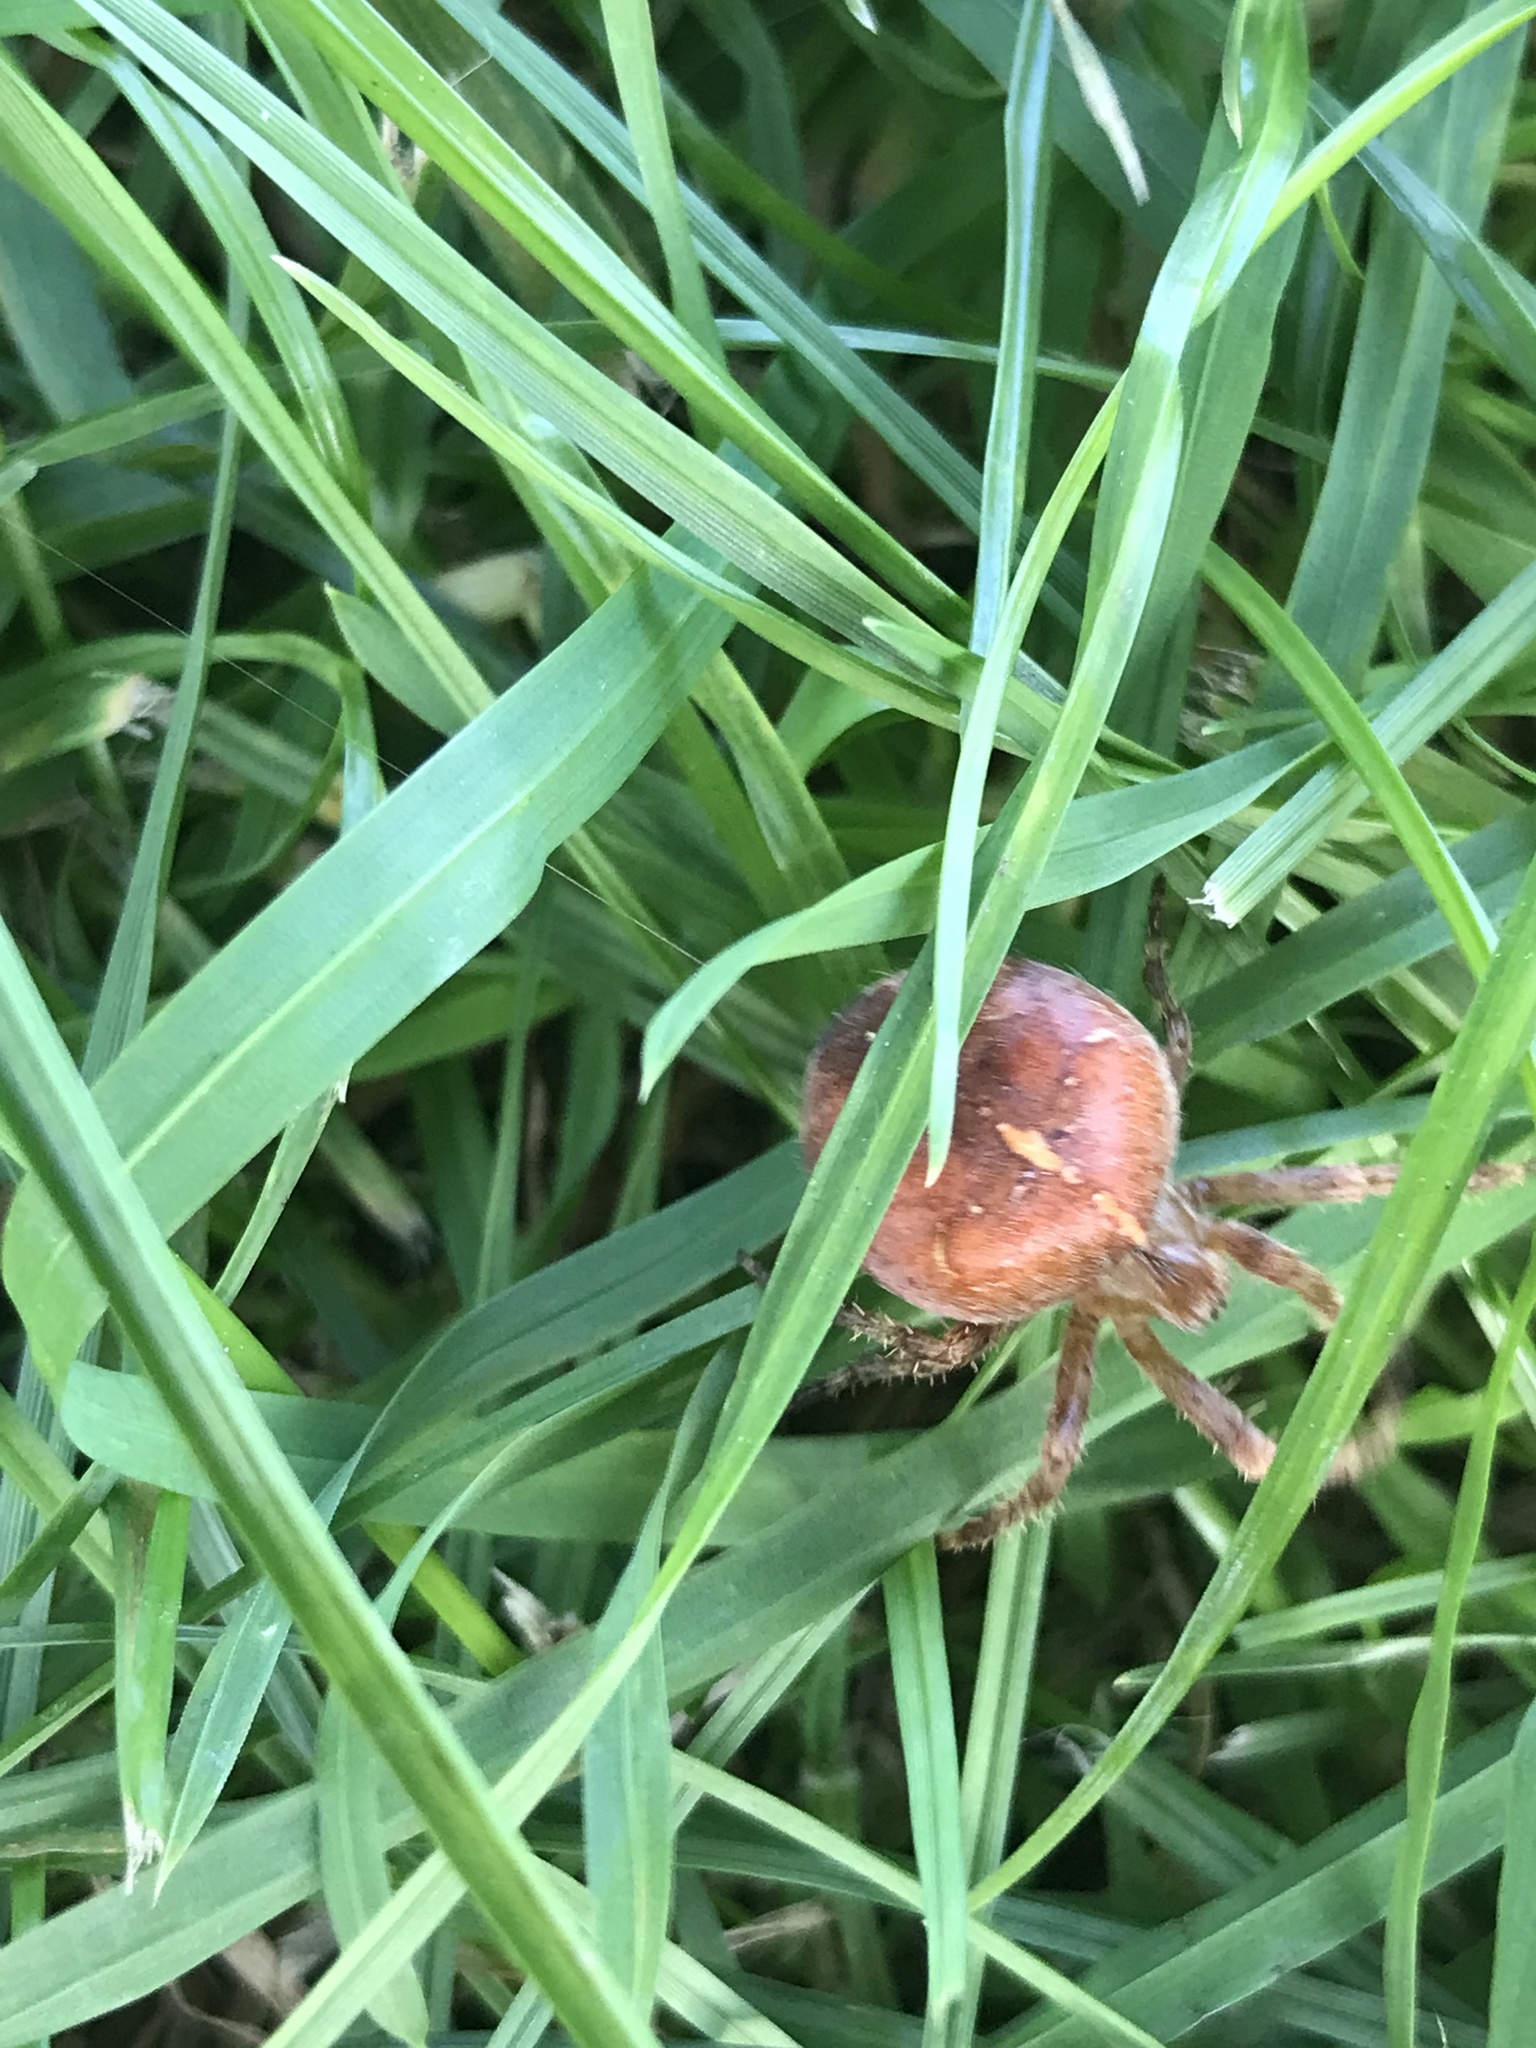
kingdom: Animalia
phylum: Arthropoda
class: Arachnida
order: Araneae
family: Araneidae
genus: Araneus
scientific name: Araneus diadematus
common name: Cross orbweaver
